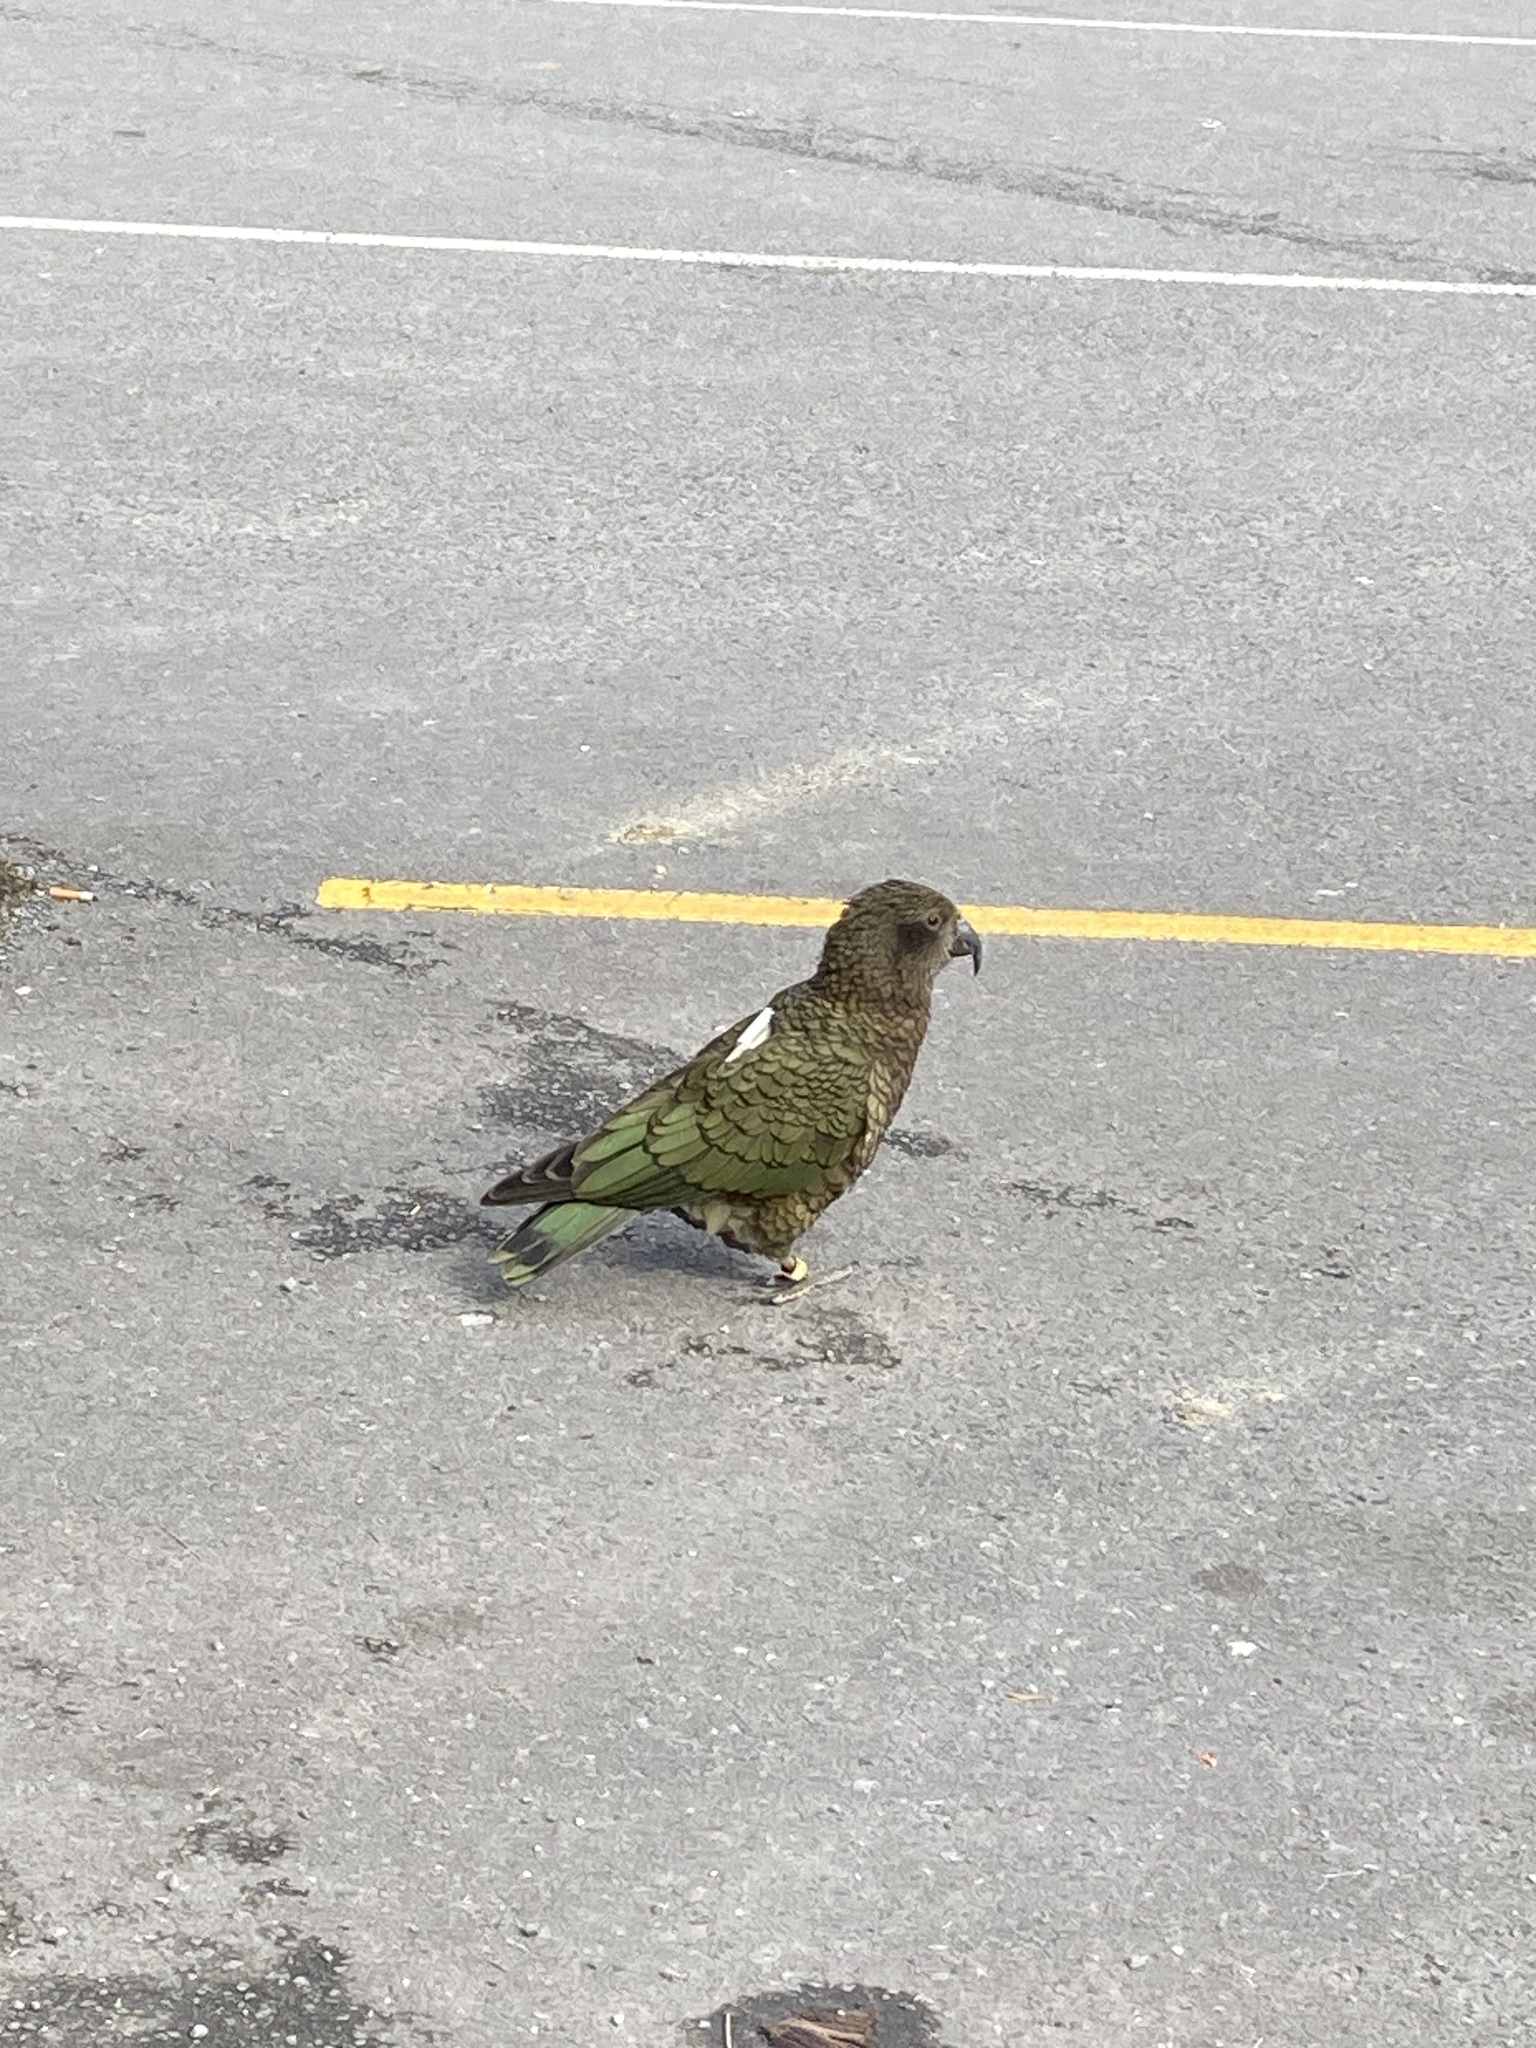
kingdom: Animalia
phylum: Chordata
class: Aves
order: Psittaciformes
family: Psittacidae
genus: Nestor
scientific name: Nestor notabilis
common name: Kea
